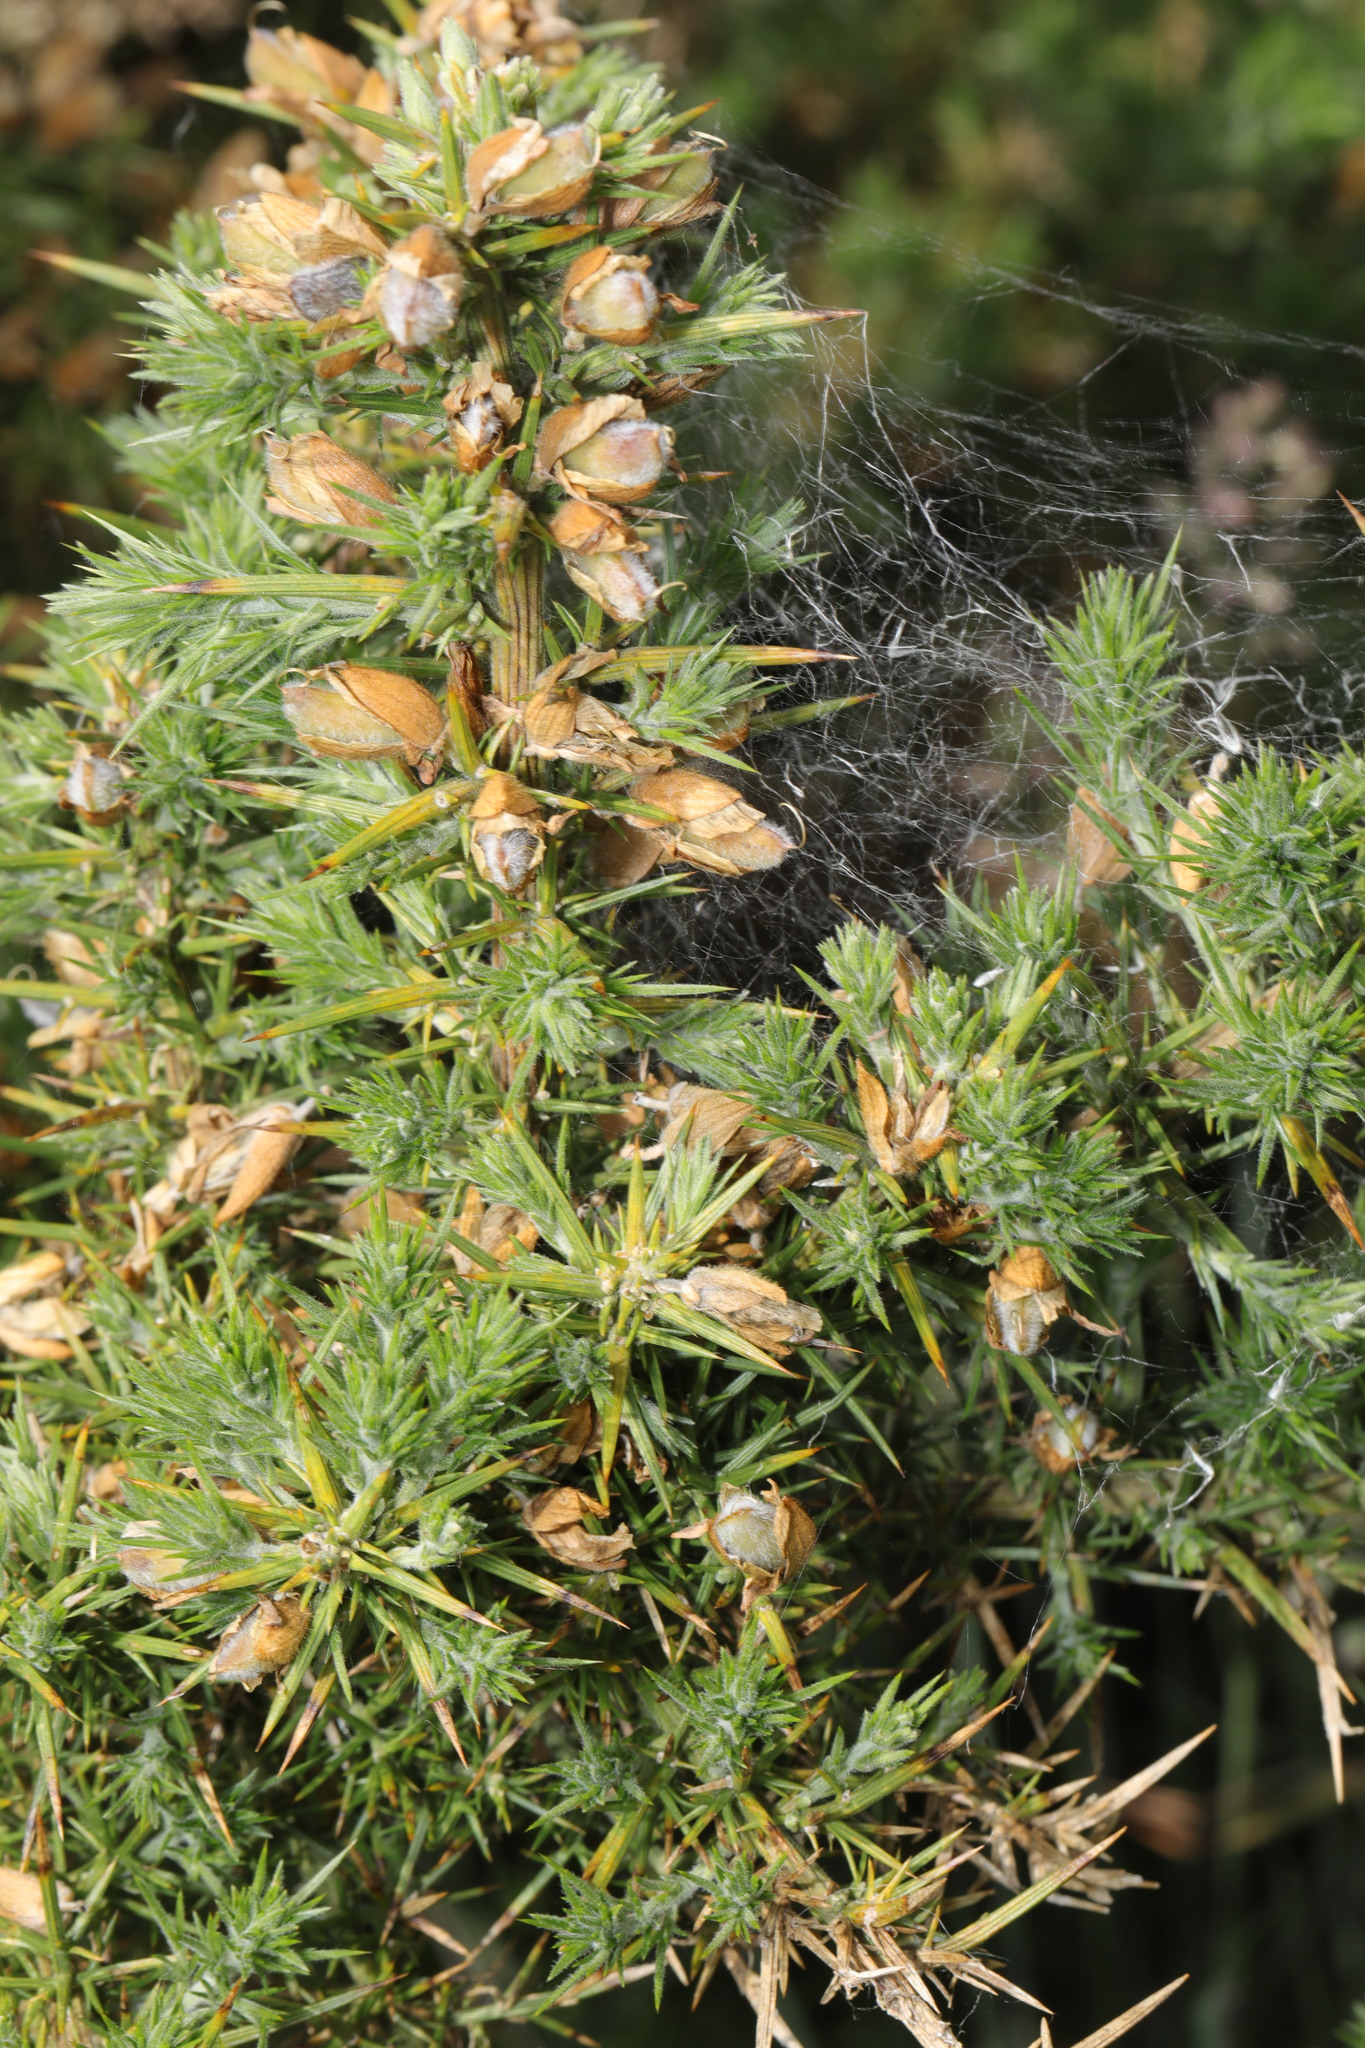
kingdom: Plantae
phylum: Tracheophyta
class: Magnoliopsida
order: Fabales
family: Fabaceae
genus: Ulex
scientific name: Ulex europaeus
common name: Common gorse
